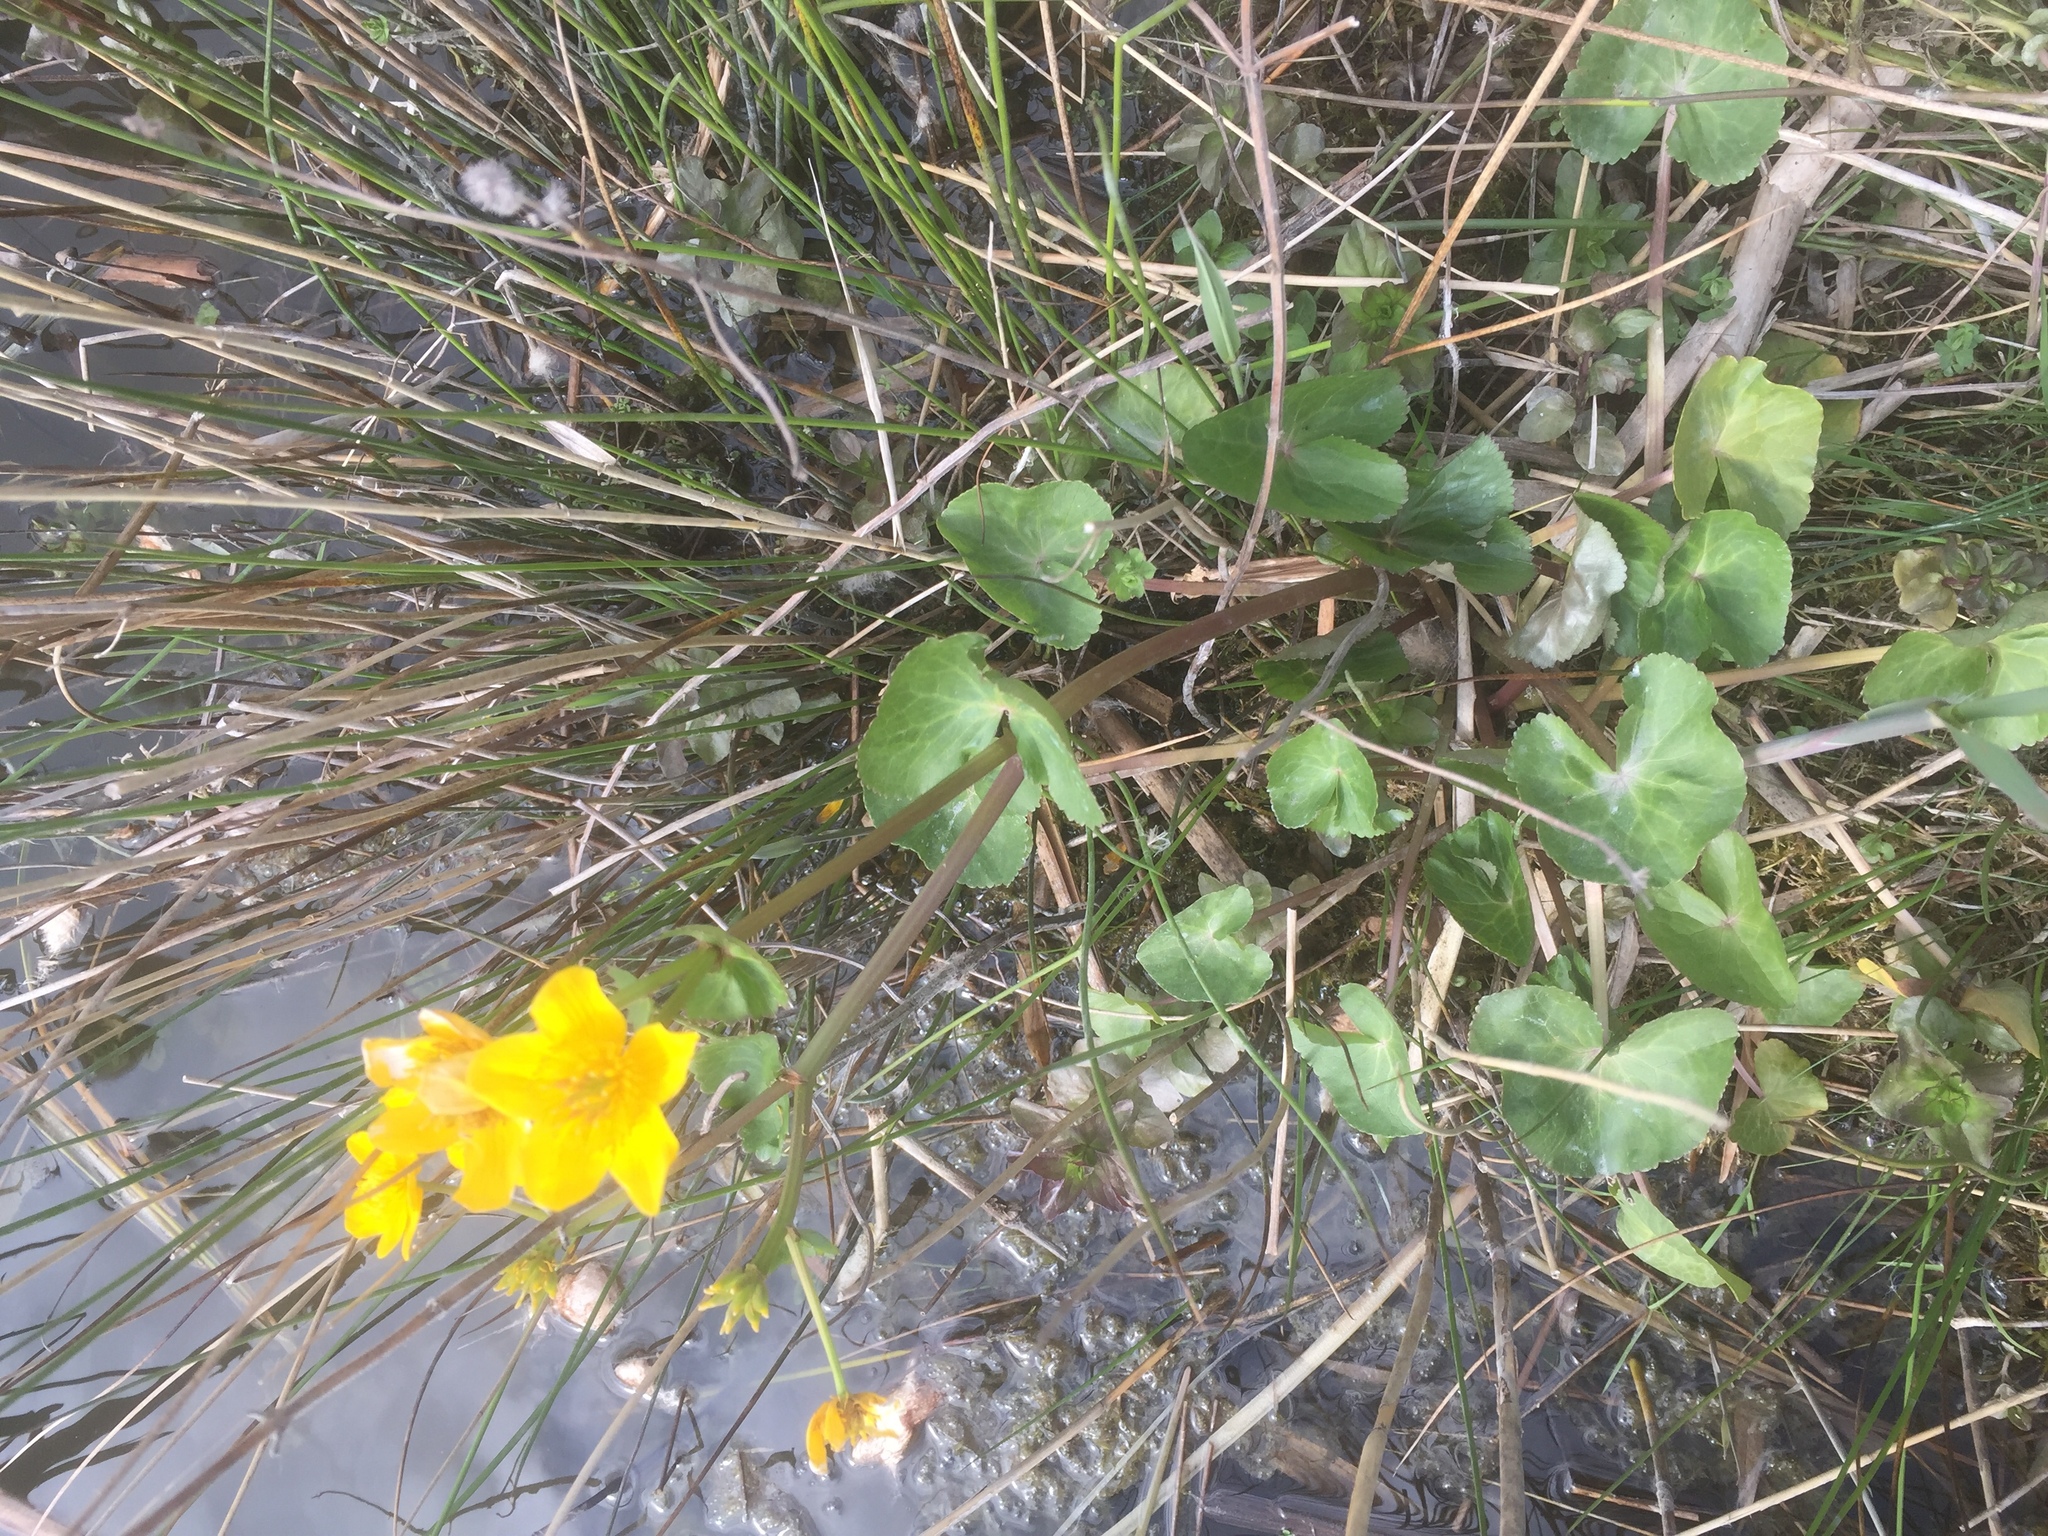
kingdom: Plantae
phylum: Tracheophyta
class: Magnoliopsida
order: Ranunculales
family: Ranunculaceae
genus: Caltha
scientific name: Caltha palustris
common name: Marsh marigold
